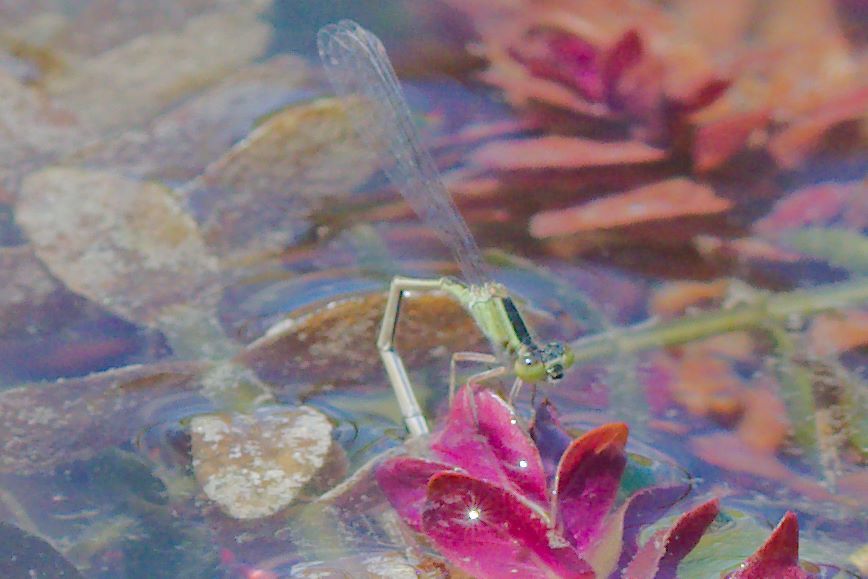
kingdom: Animalia
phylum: Arthropoda
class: Insecta
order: Odonata
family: Coenagrionidae
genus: Ischnura
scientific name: Ischnura ramburii
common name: Rambur's forktail
